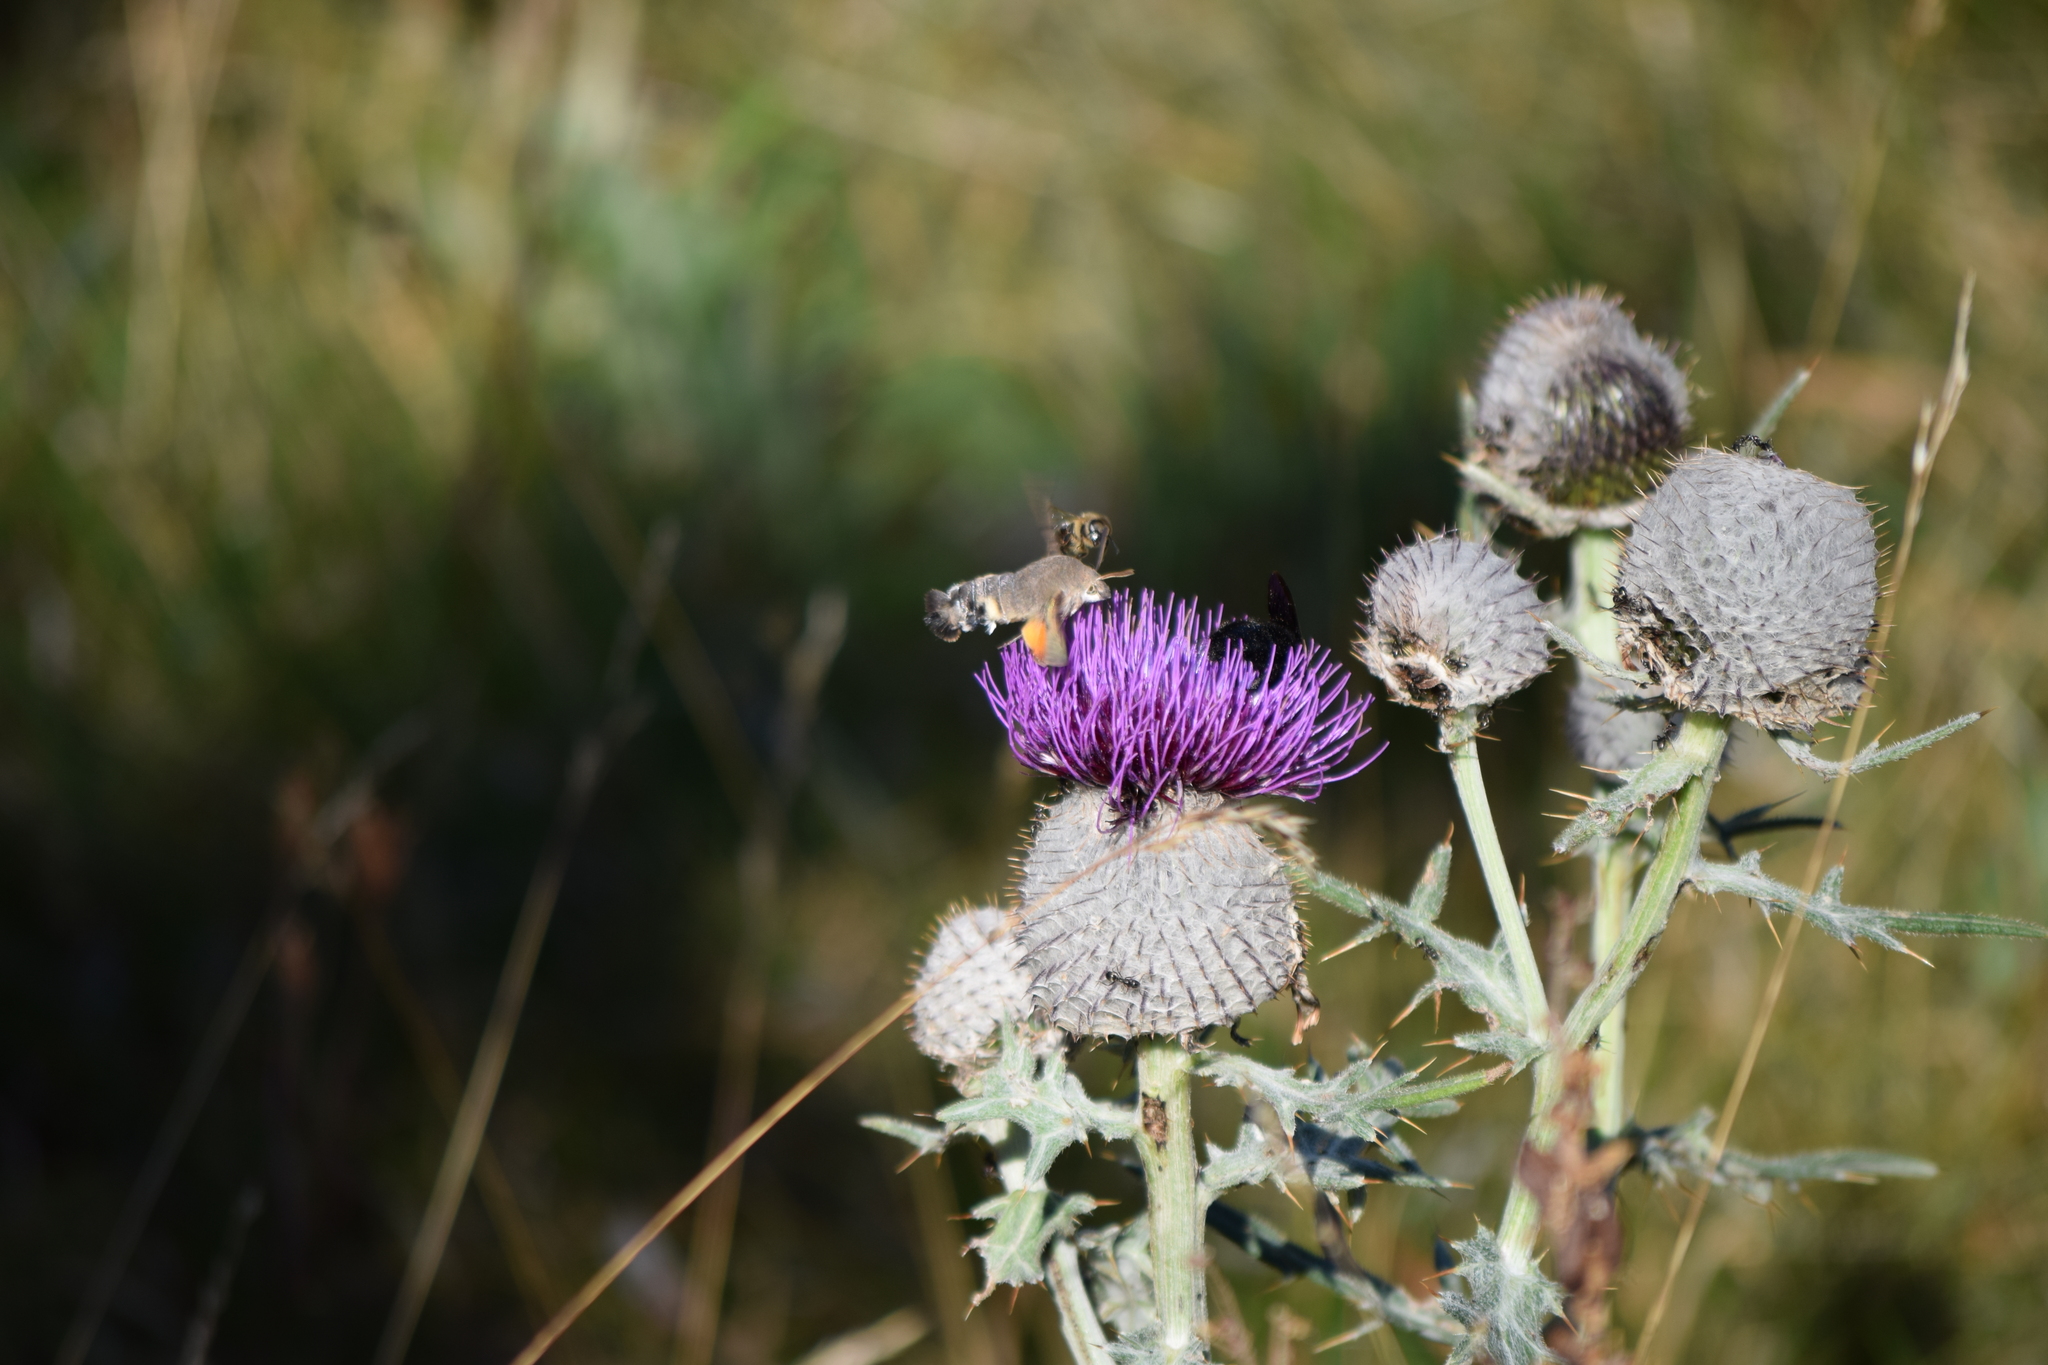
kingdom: Animalia
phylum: Arthropoda
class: Insecta
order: Lepidoptera
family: Sphingidae
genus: Macroglossum
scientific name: Macroglossum stellatarum
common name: Humming-bird hawk-moth
